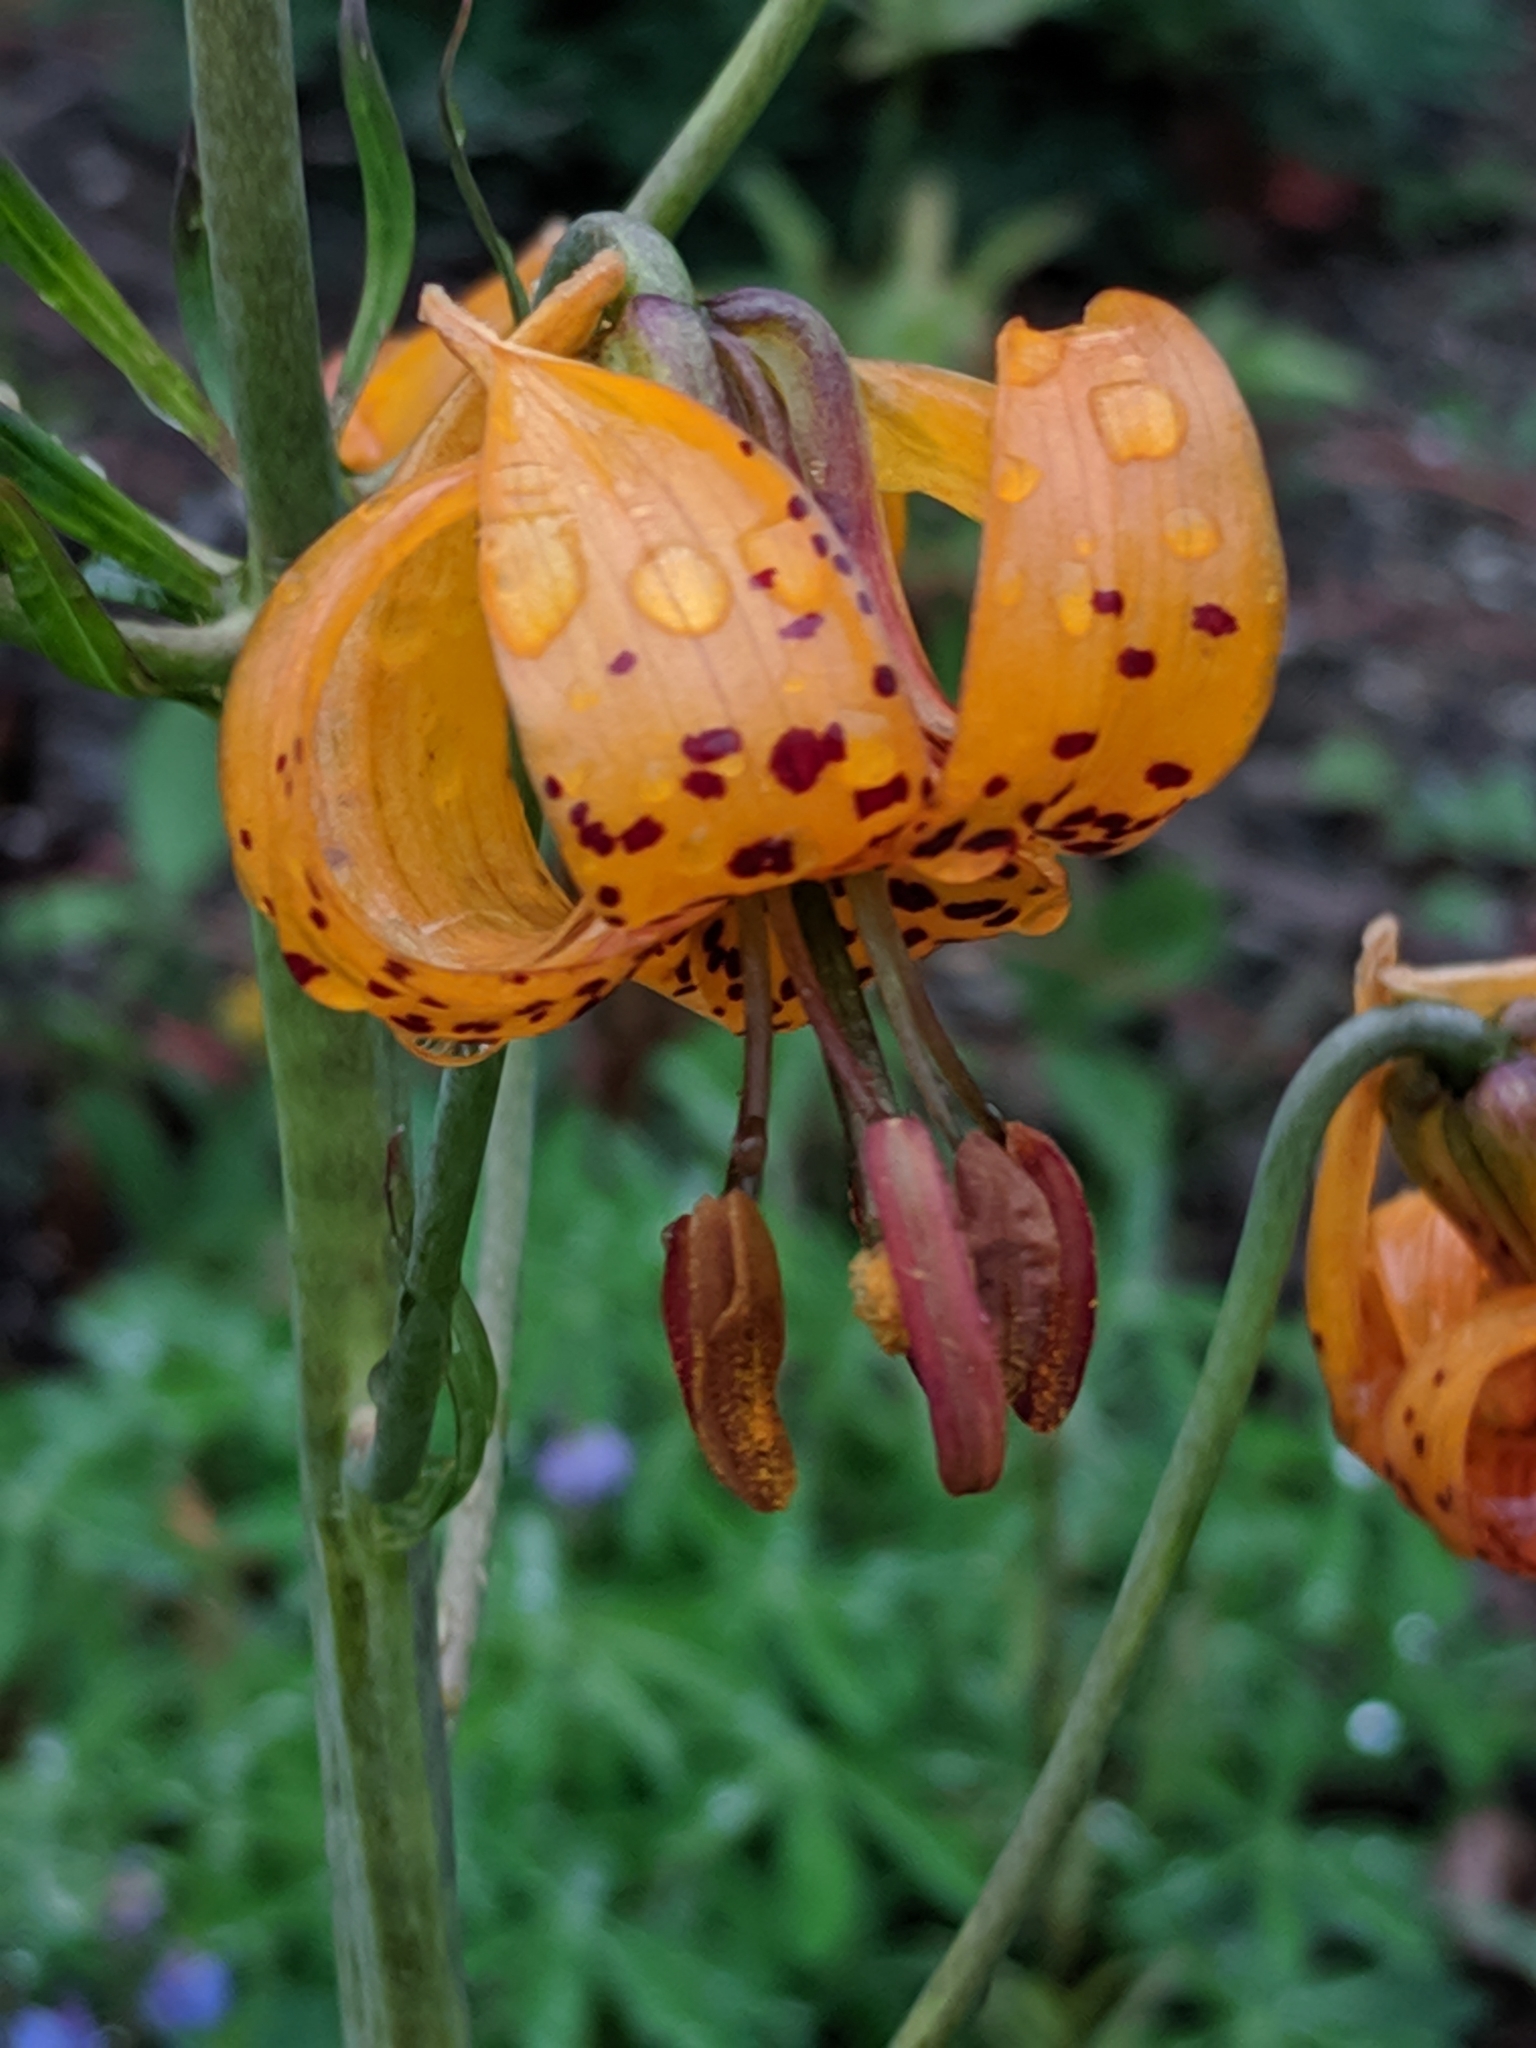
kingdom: Plantae
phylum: Tracheophyta
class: Liliopsida
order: Liliales
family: Liliaceae
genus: Lilium
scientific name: Lilium columbianum
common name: Columbia lily
